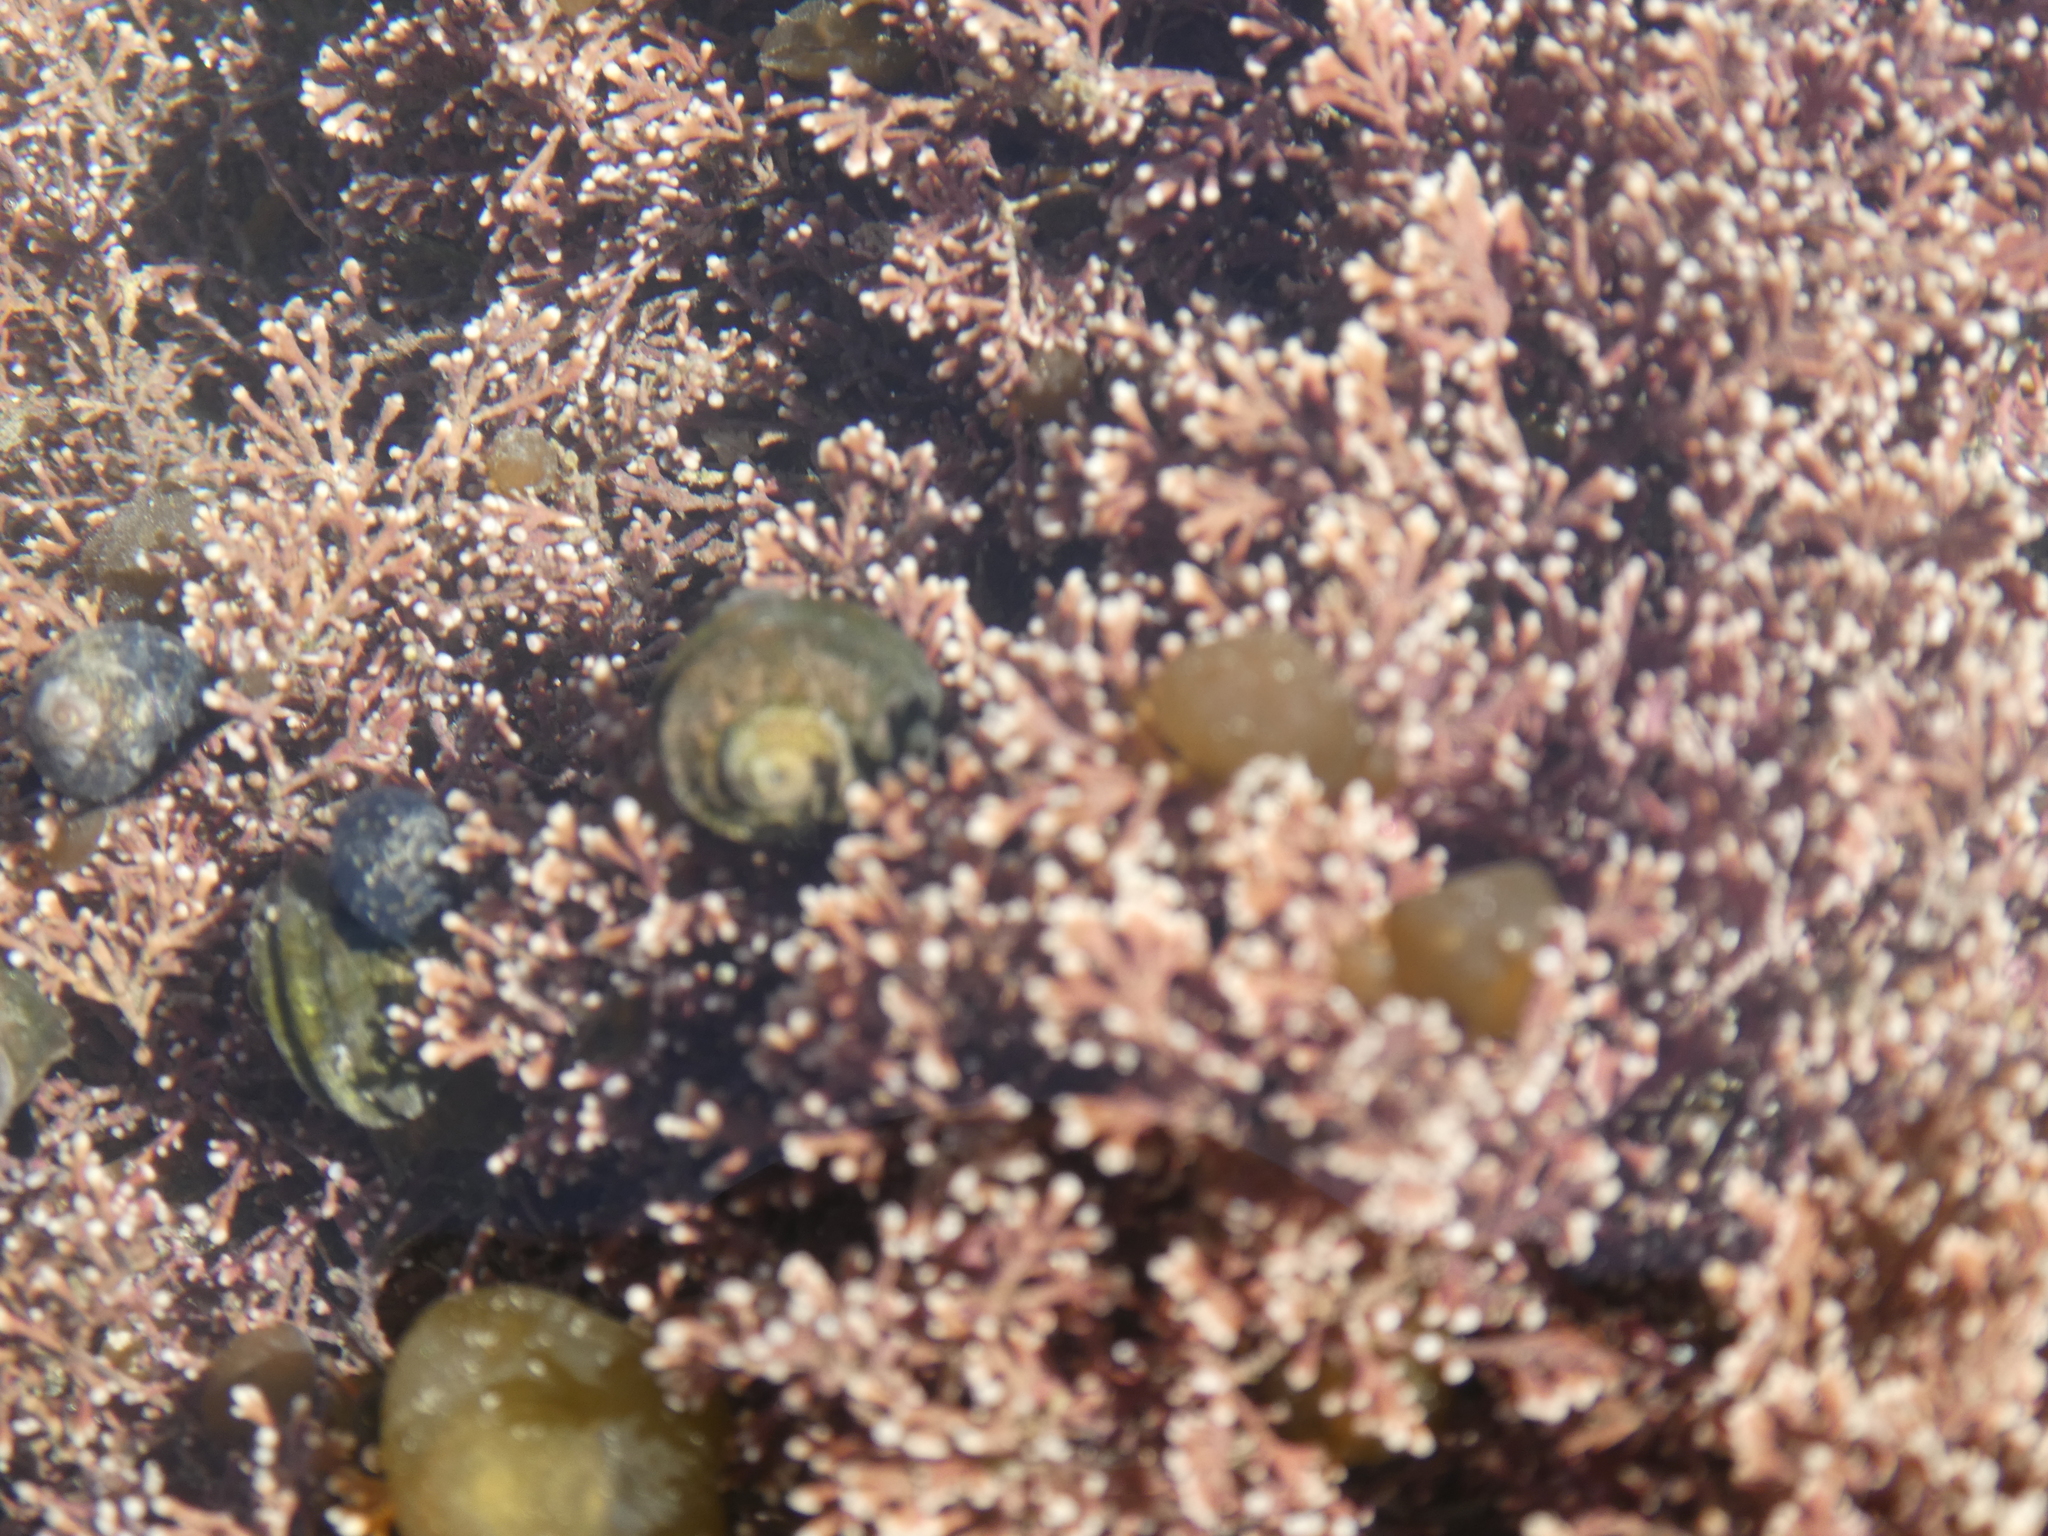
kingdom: Plantae
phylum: Rhodophyta
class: Florideophyceae
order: Corallinales
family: Corallinaceae
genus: Corallina
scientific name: Corallina officinalis
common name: Coral weed
